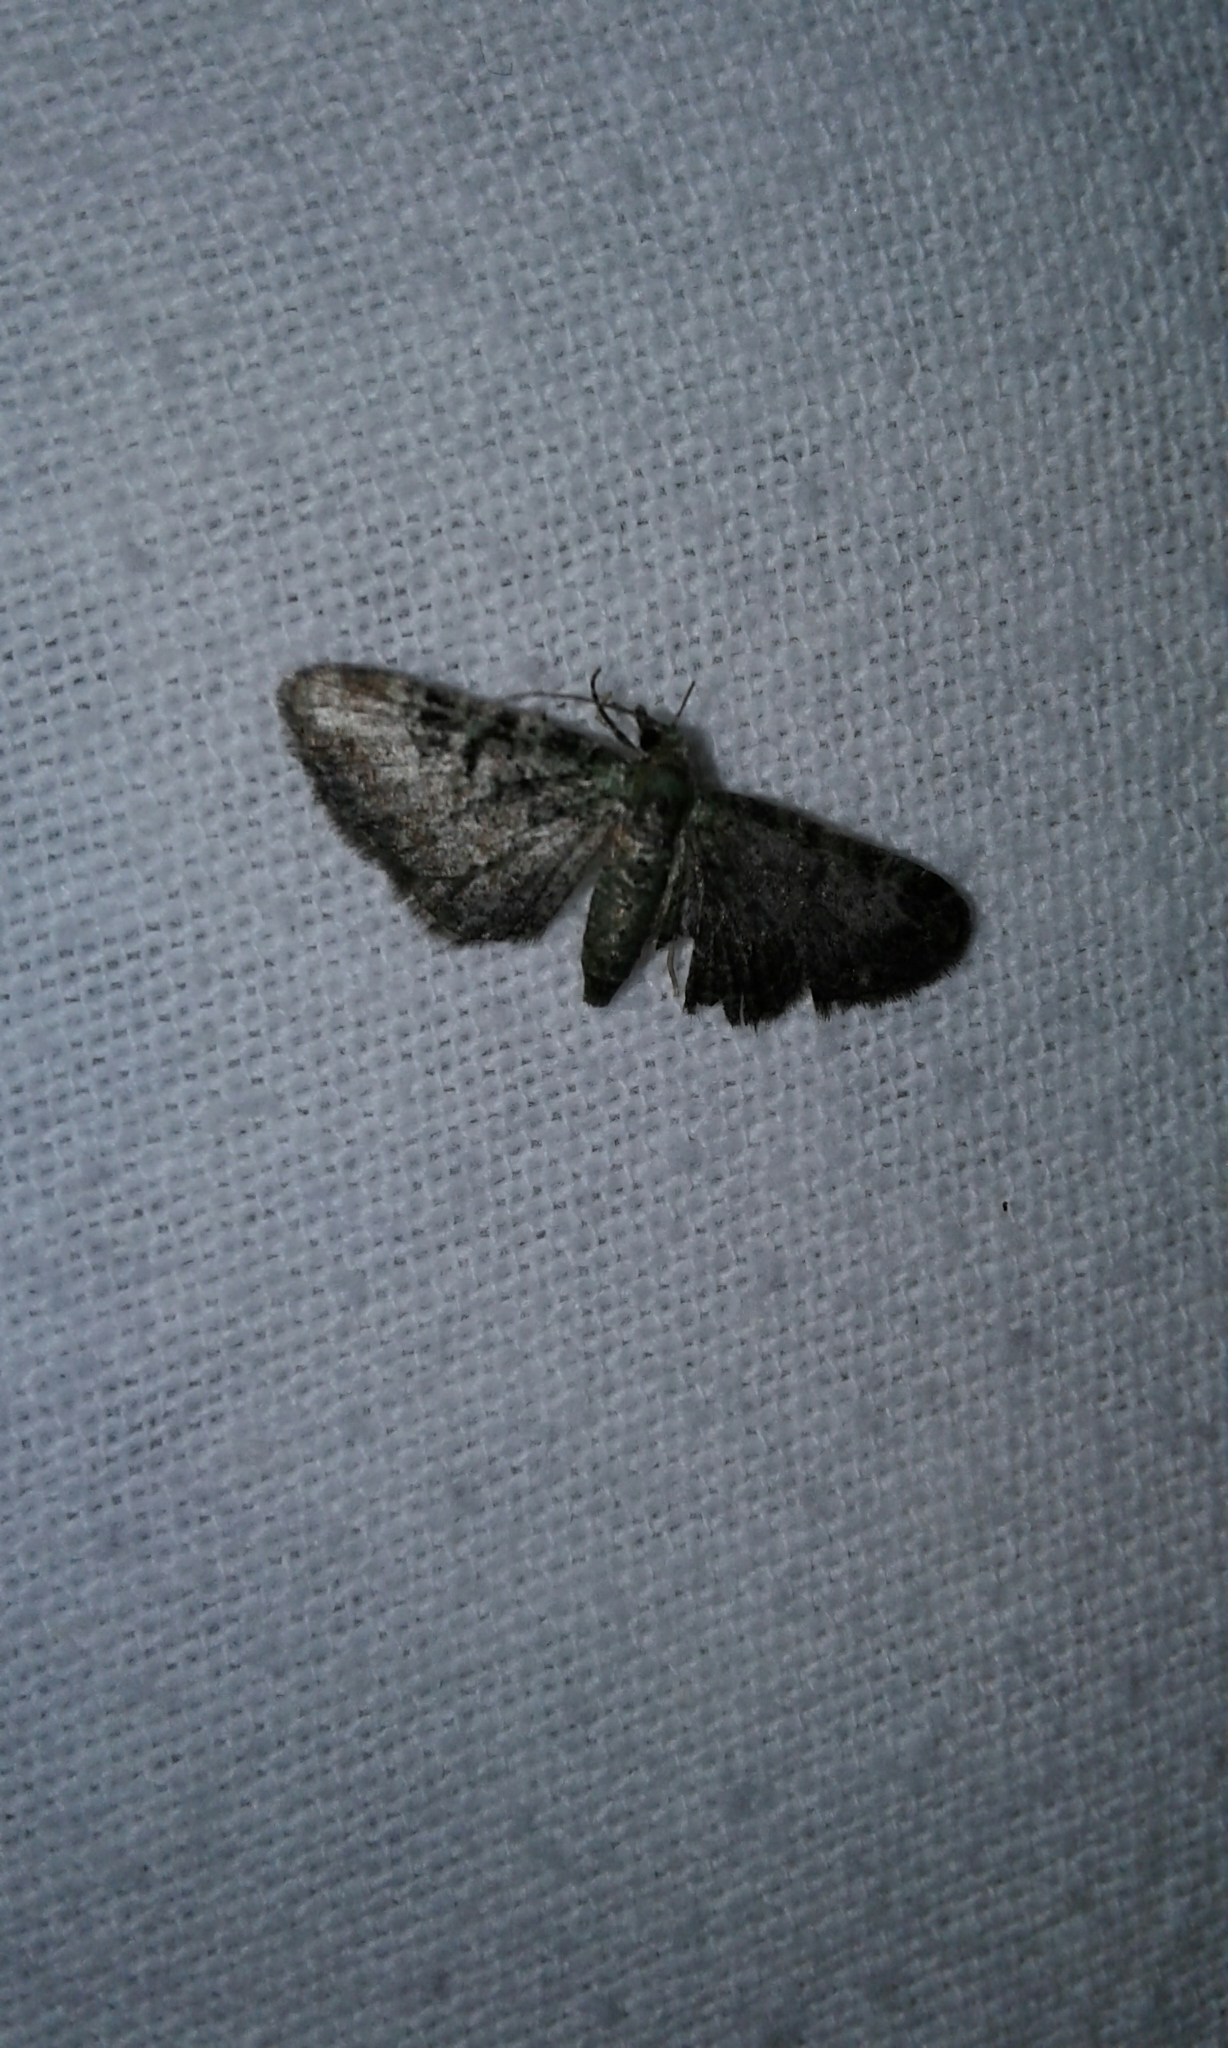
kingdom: Animalia
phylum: Arthropoda
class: Insecta
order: Lepidoptera
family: Geometridae
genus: Pasiphila
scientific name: Pasiphila rectangulata
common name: Green pug
